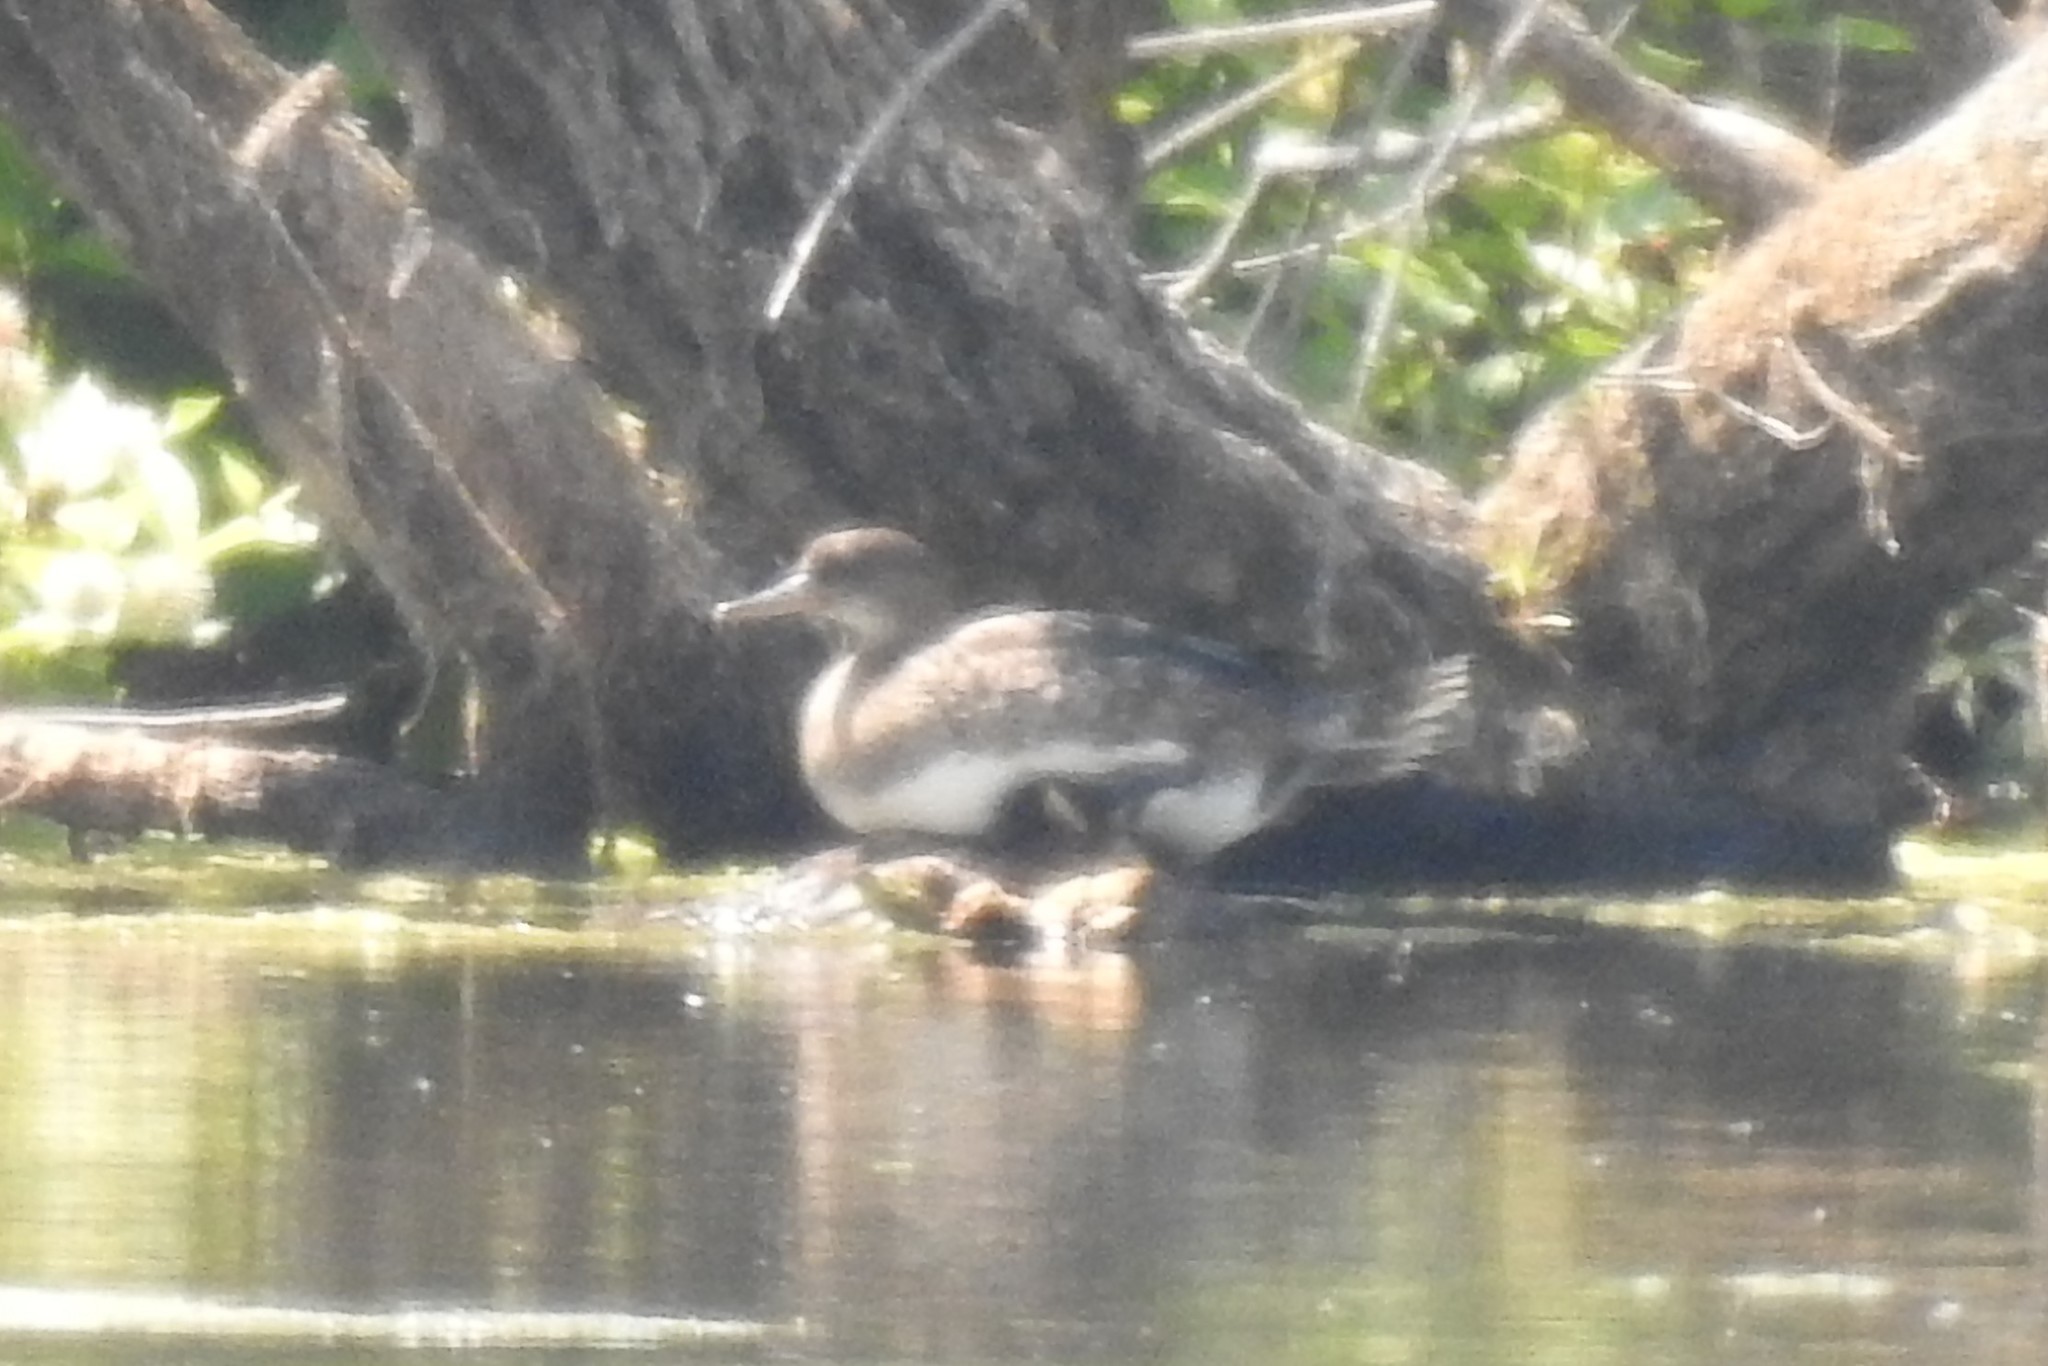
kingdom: Animalia
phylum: Chordata
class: Aves
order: Anseriformes
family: Anatidae
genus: Lophodytes
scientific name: Lophodytes cucullatus
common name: Hooded merganser
